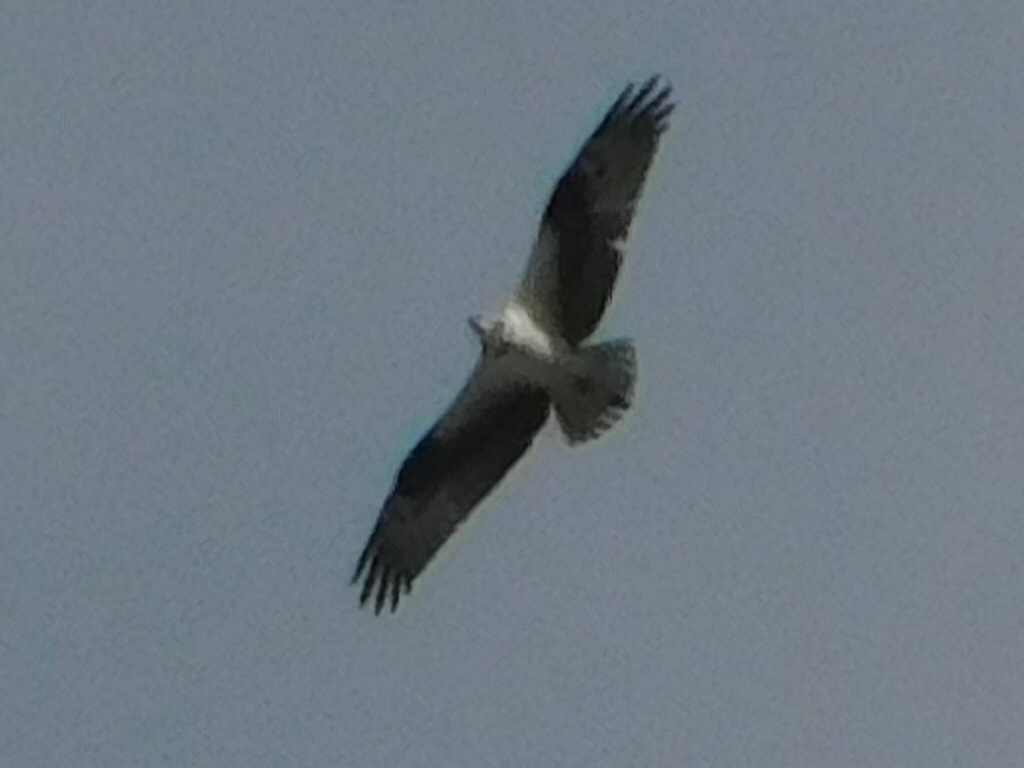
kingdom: Animalia
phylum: Chordata
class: Aves
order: Accipitriformes
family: Pandionidae
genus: Pandion
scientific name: Pandion haliaetus
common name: Osprey
